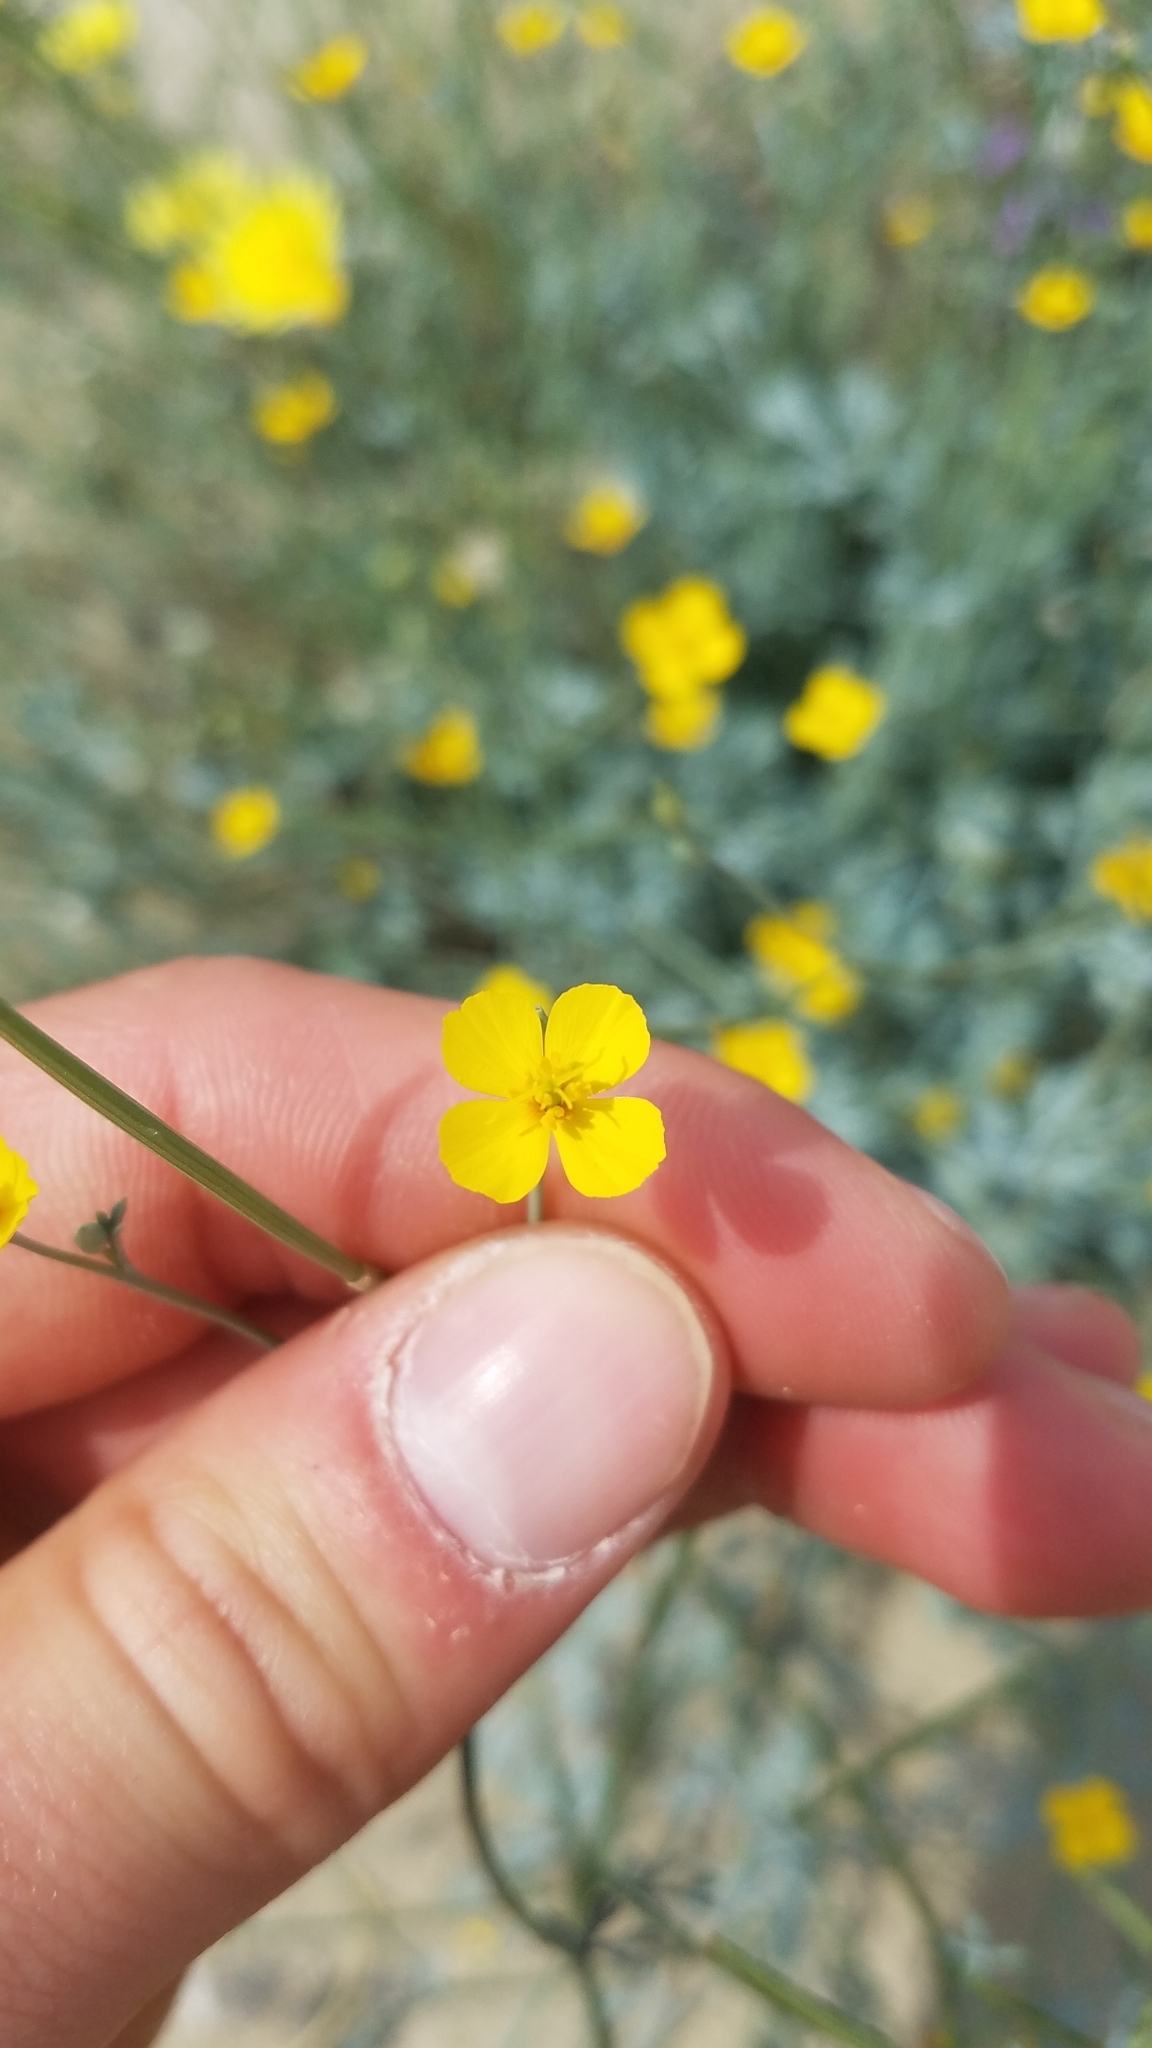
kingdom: Plantae
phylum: Tracheophyta
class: Magnoliopsida
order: Ranunculales
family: Papaveraceae
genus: Eschscholzia
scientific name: Eschscholzia minutiflora
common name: Small-flower california-poppy
